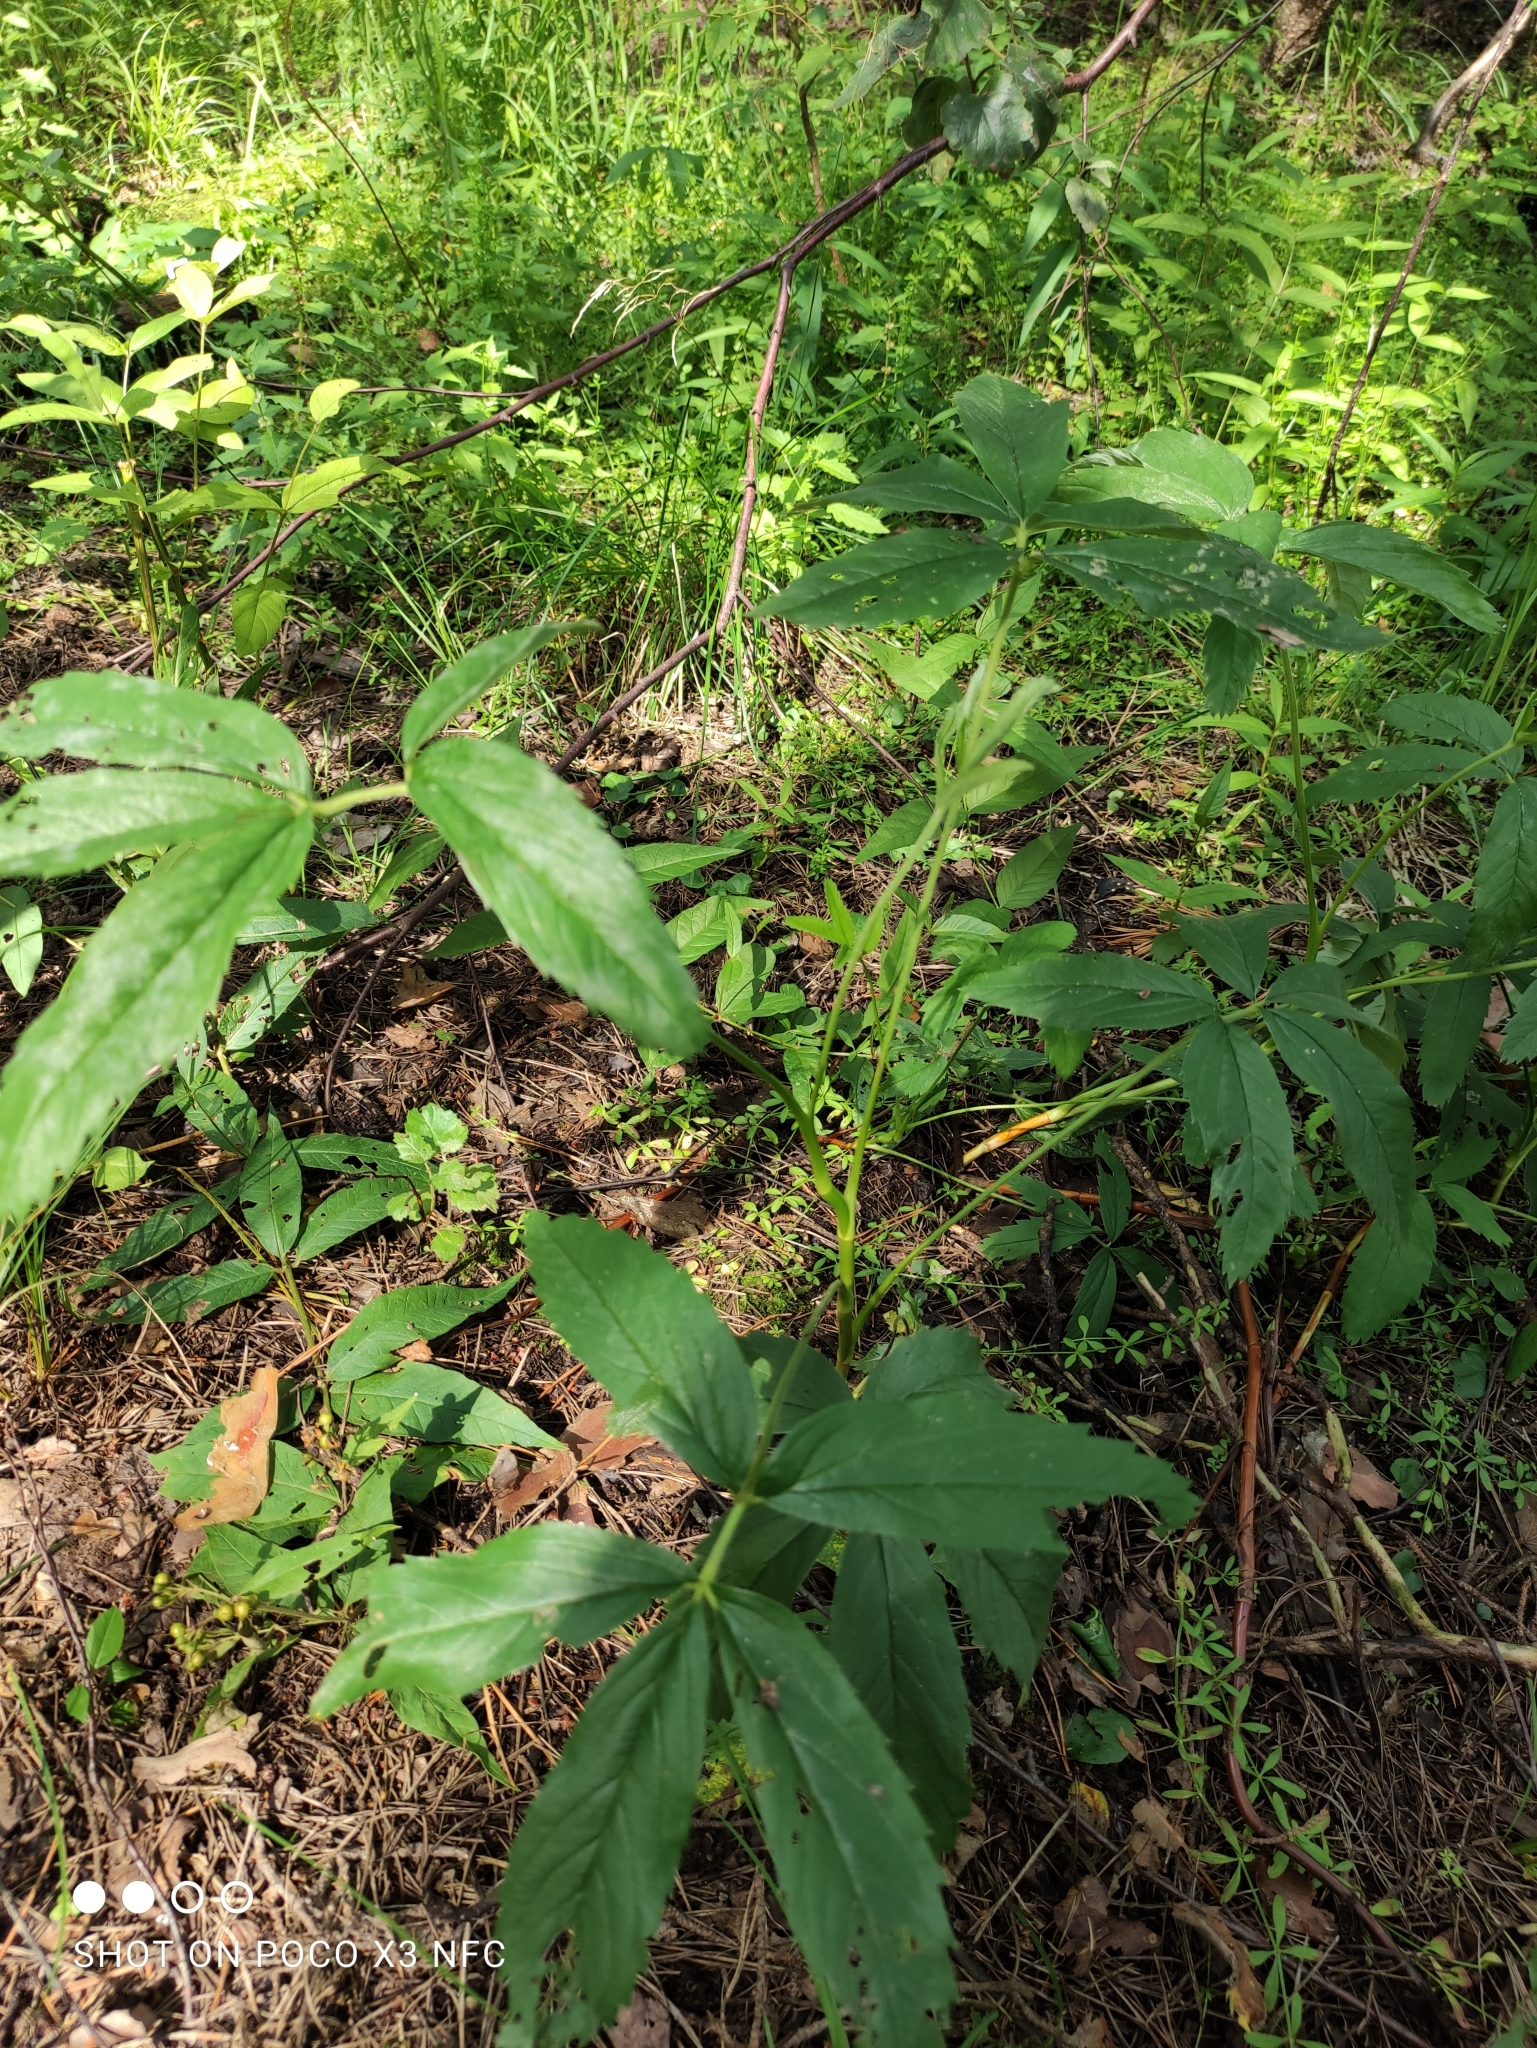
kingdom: Plantae
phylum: Tracheophyta
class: Magnoliopsida
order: Rosales
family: Rosaceae
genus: Comarum
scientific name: Comarum palustre
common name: Marsh cinquefoil
